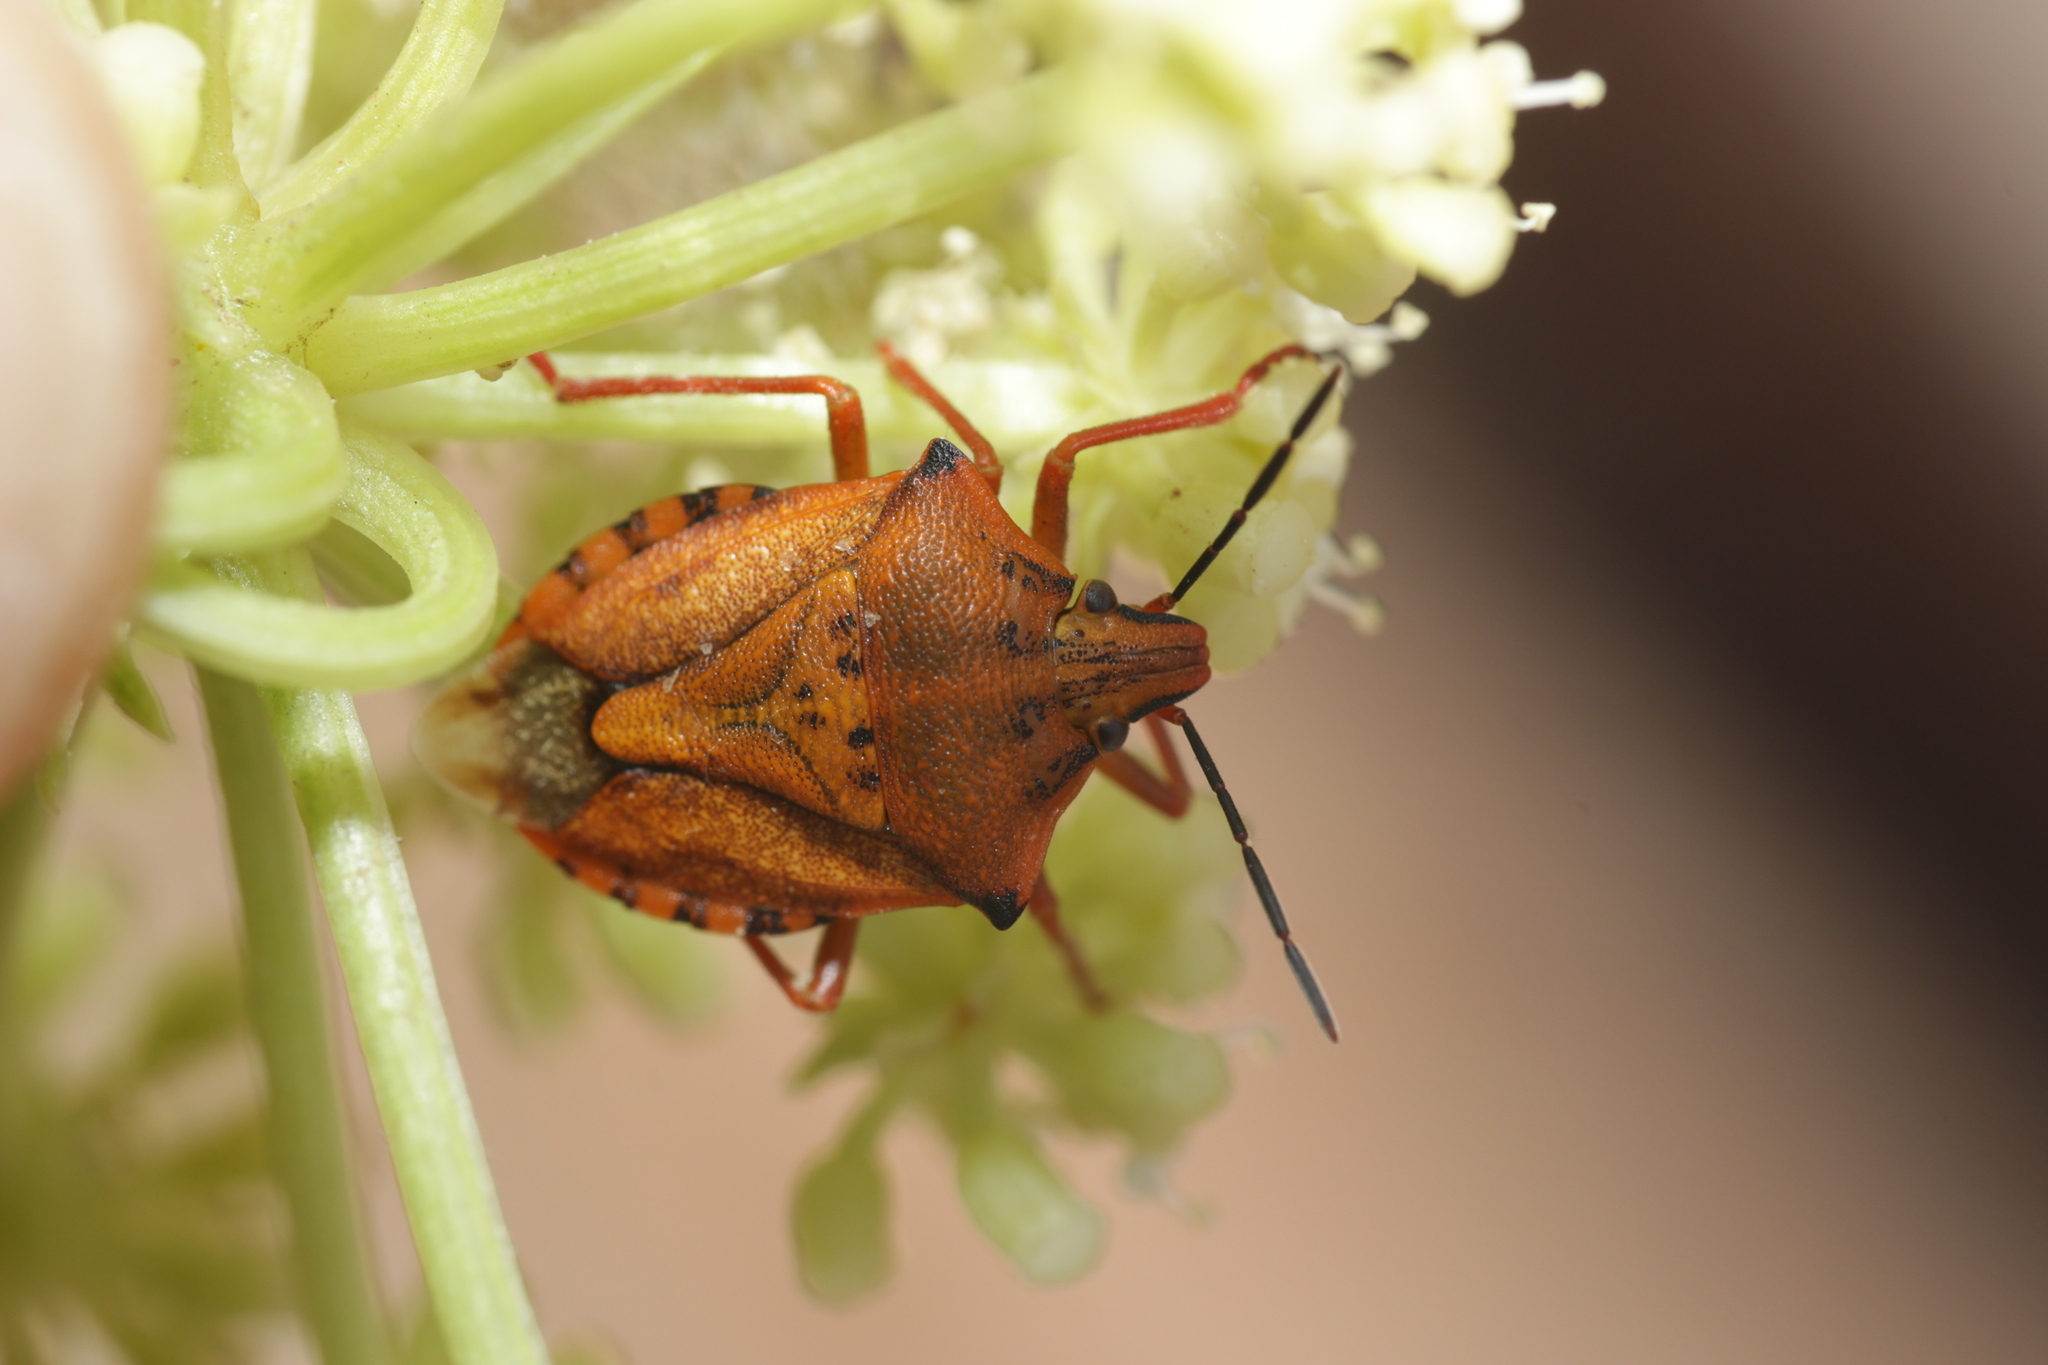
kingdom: Animalia
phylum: Arthropoda
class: Insecta
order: Hemiptera
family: Pentatomidae
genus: Carpocoris
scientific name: Carpocoris mediterraneus
